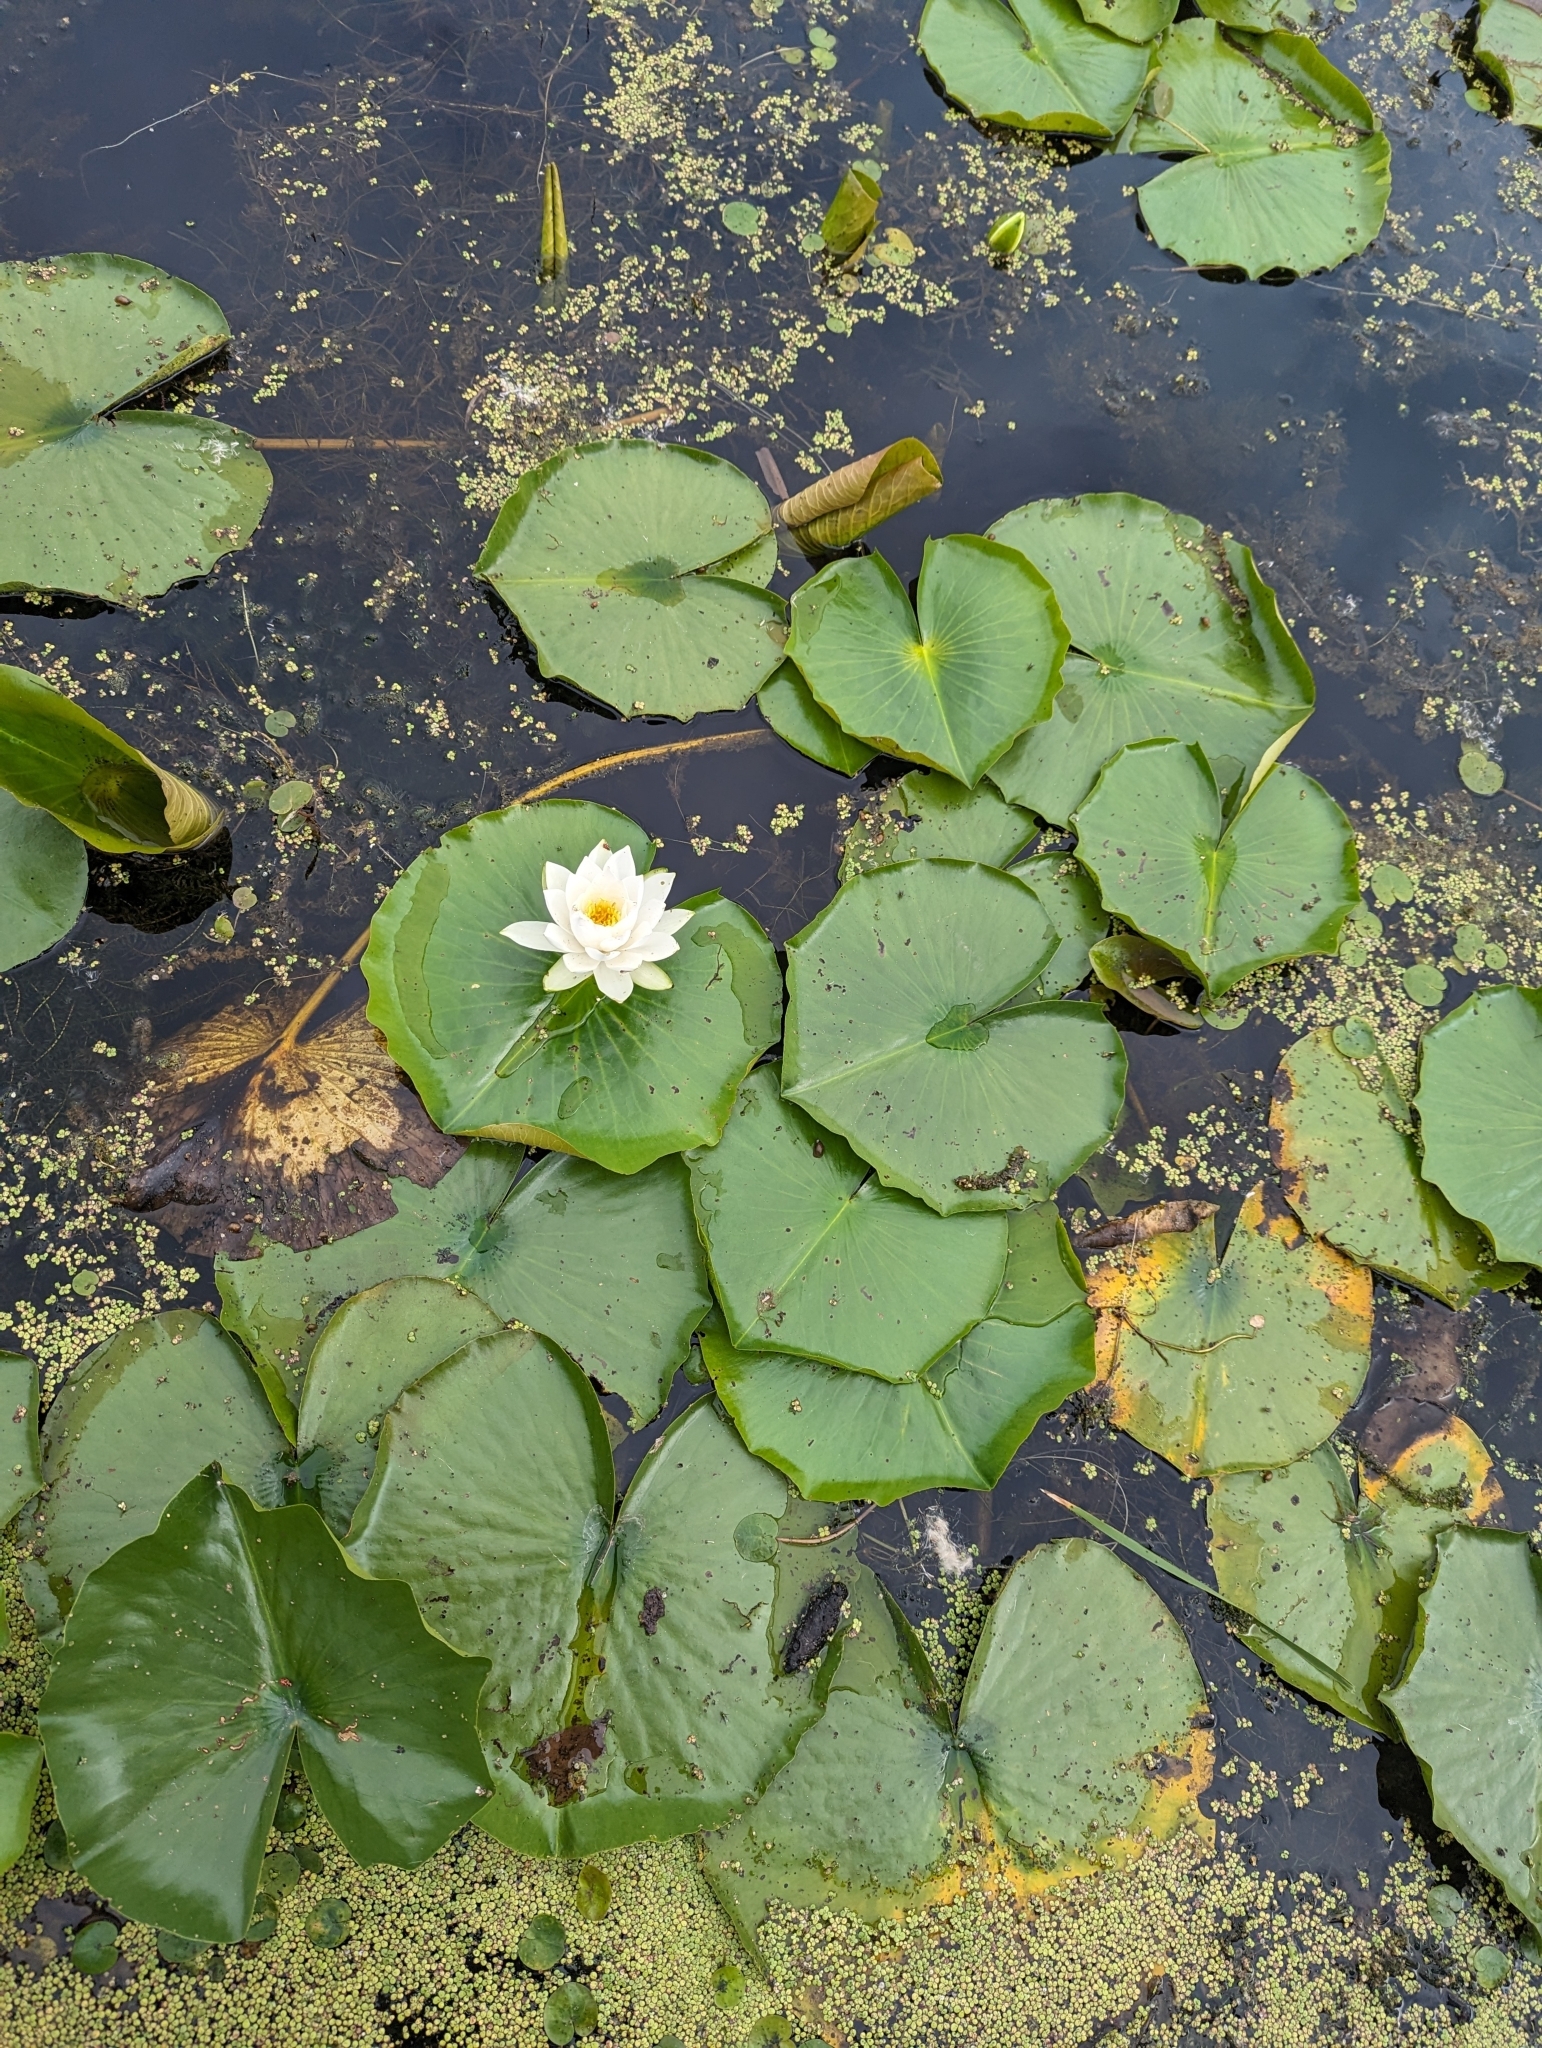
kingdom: Plantae
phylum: Tracheophyta
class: Magnoliopsida
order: Nymphaeales
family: Nymphaeaceae
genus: Nymphaea
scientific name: Nymphaea odorata
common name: Fragrant water-lily
